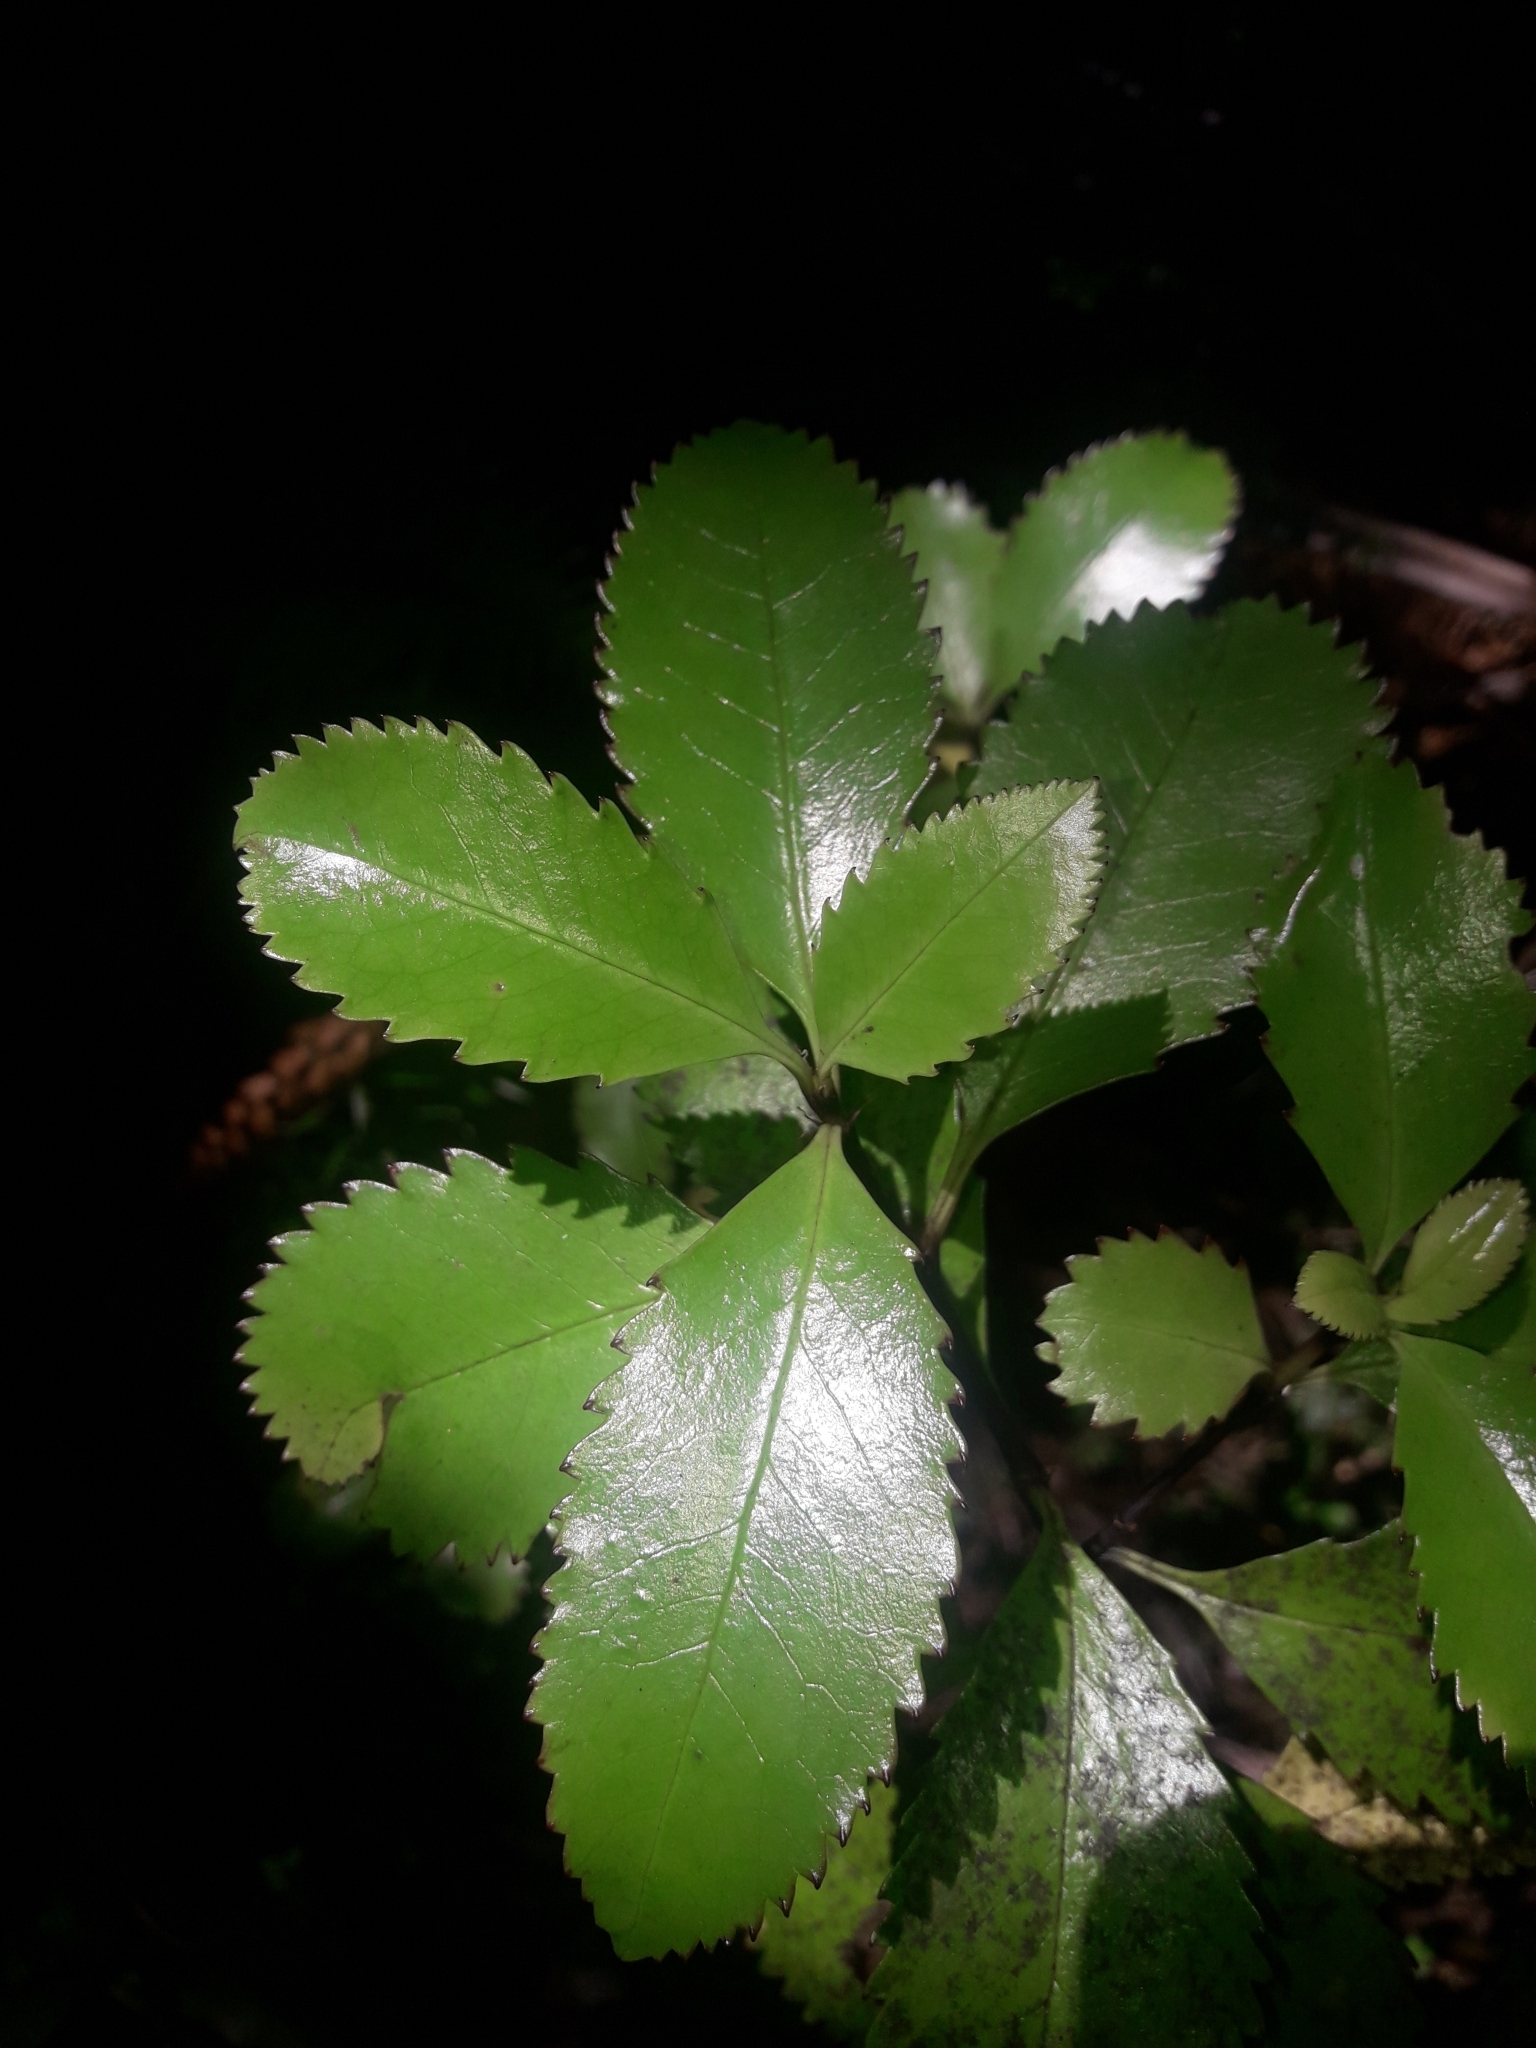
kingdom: Plantae
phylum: Tracheophyta
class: Magnoliopsida
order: Chloranthales
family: Chloranthaceae
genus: Ascarina
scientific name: Ascarina lucida
